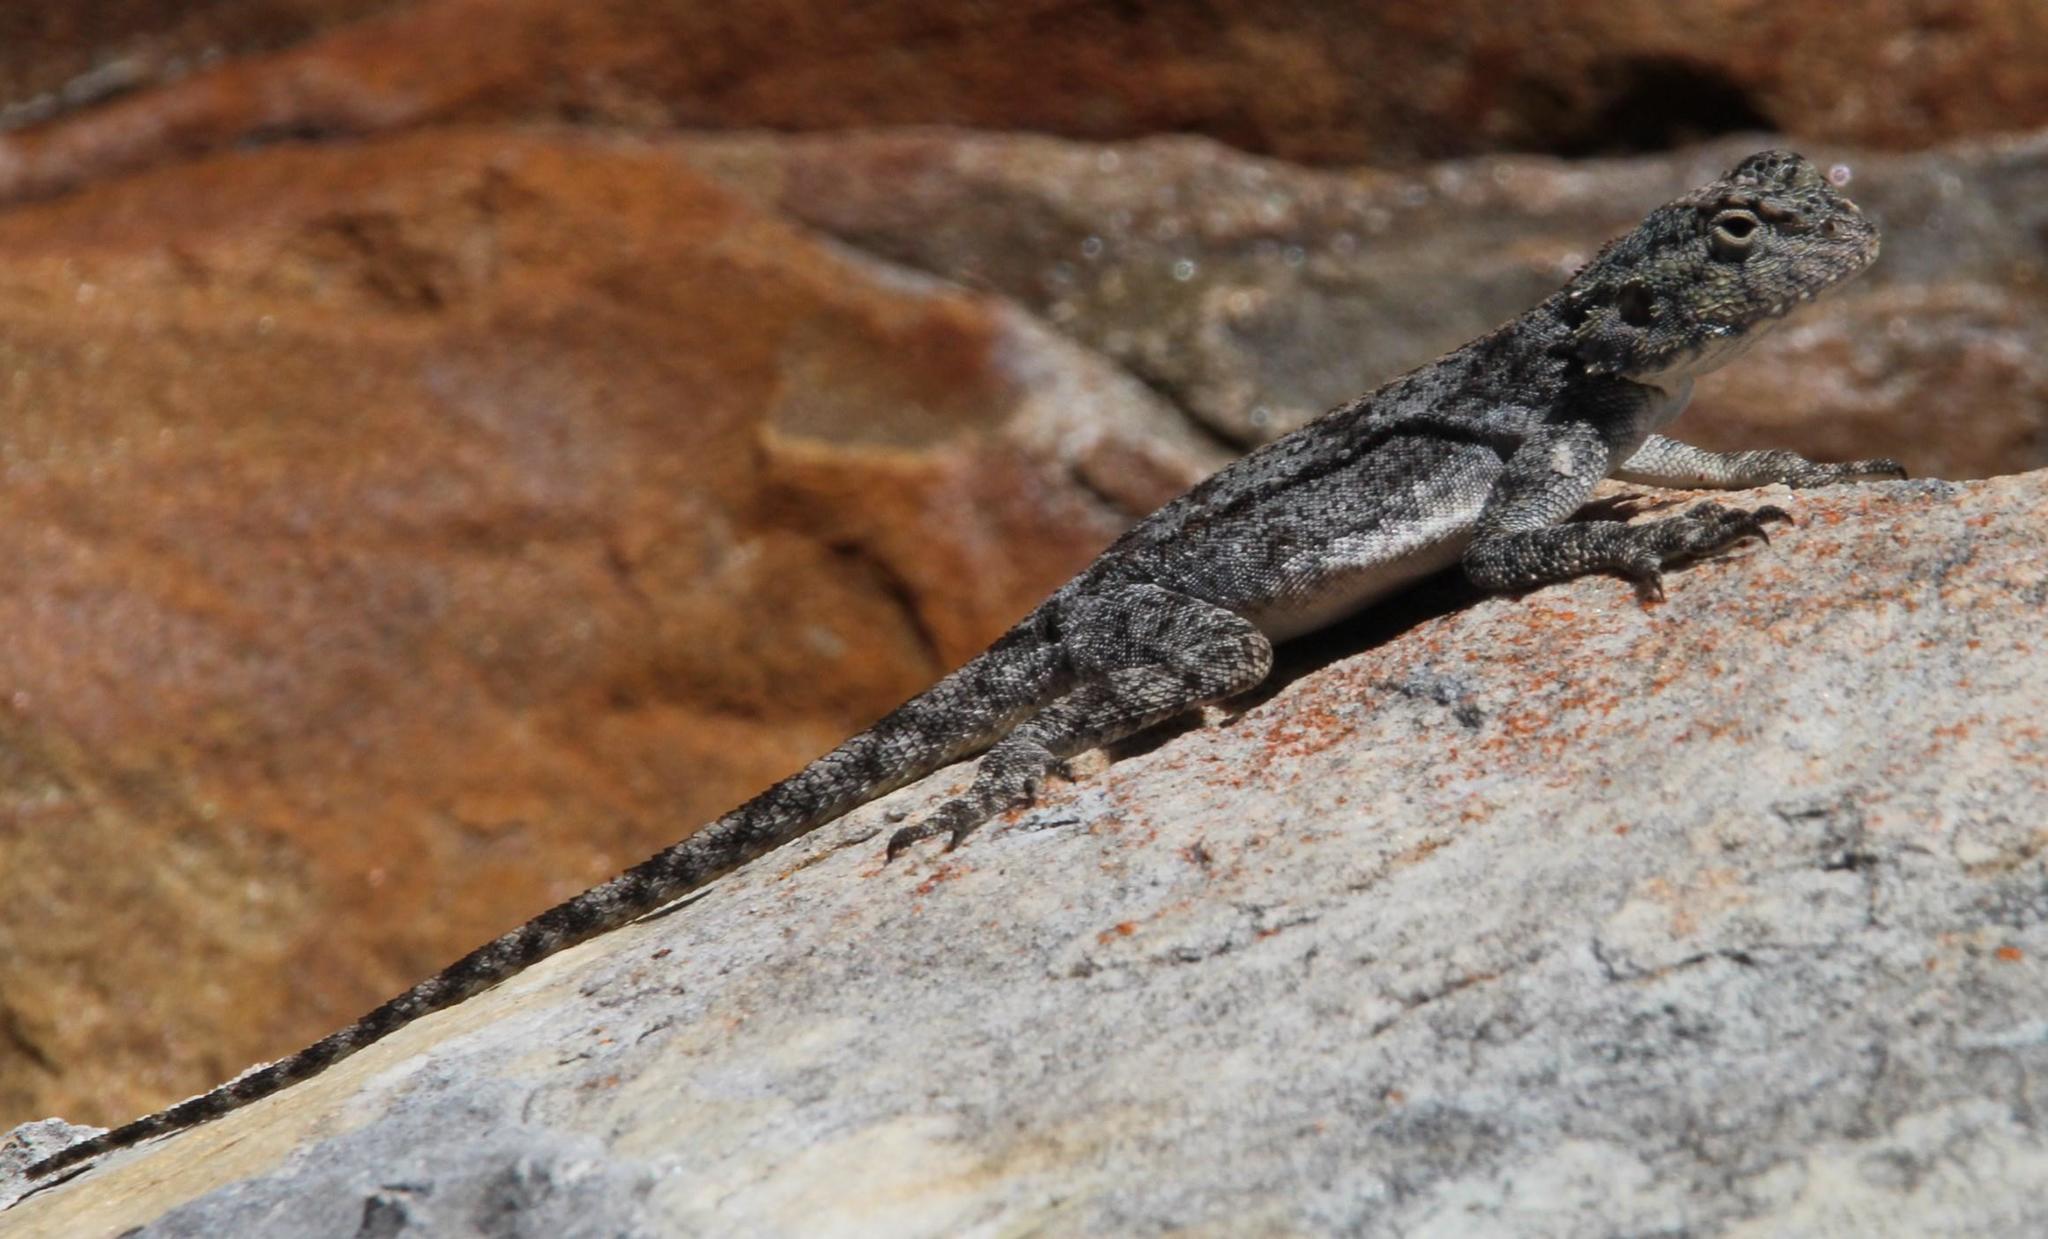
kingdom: Animalia
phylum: Chordata
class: Squamata
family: Agamidae
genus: Agama
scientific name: Agama atra
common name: Southern african rock agama
